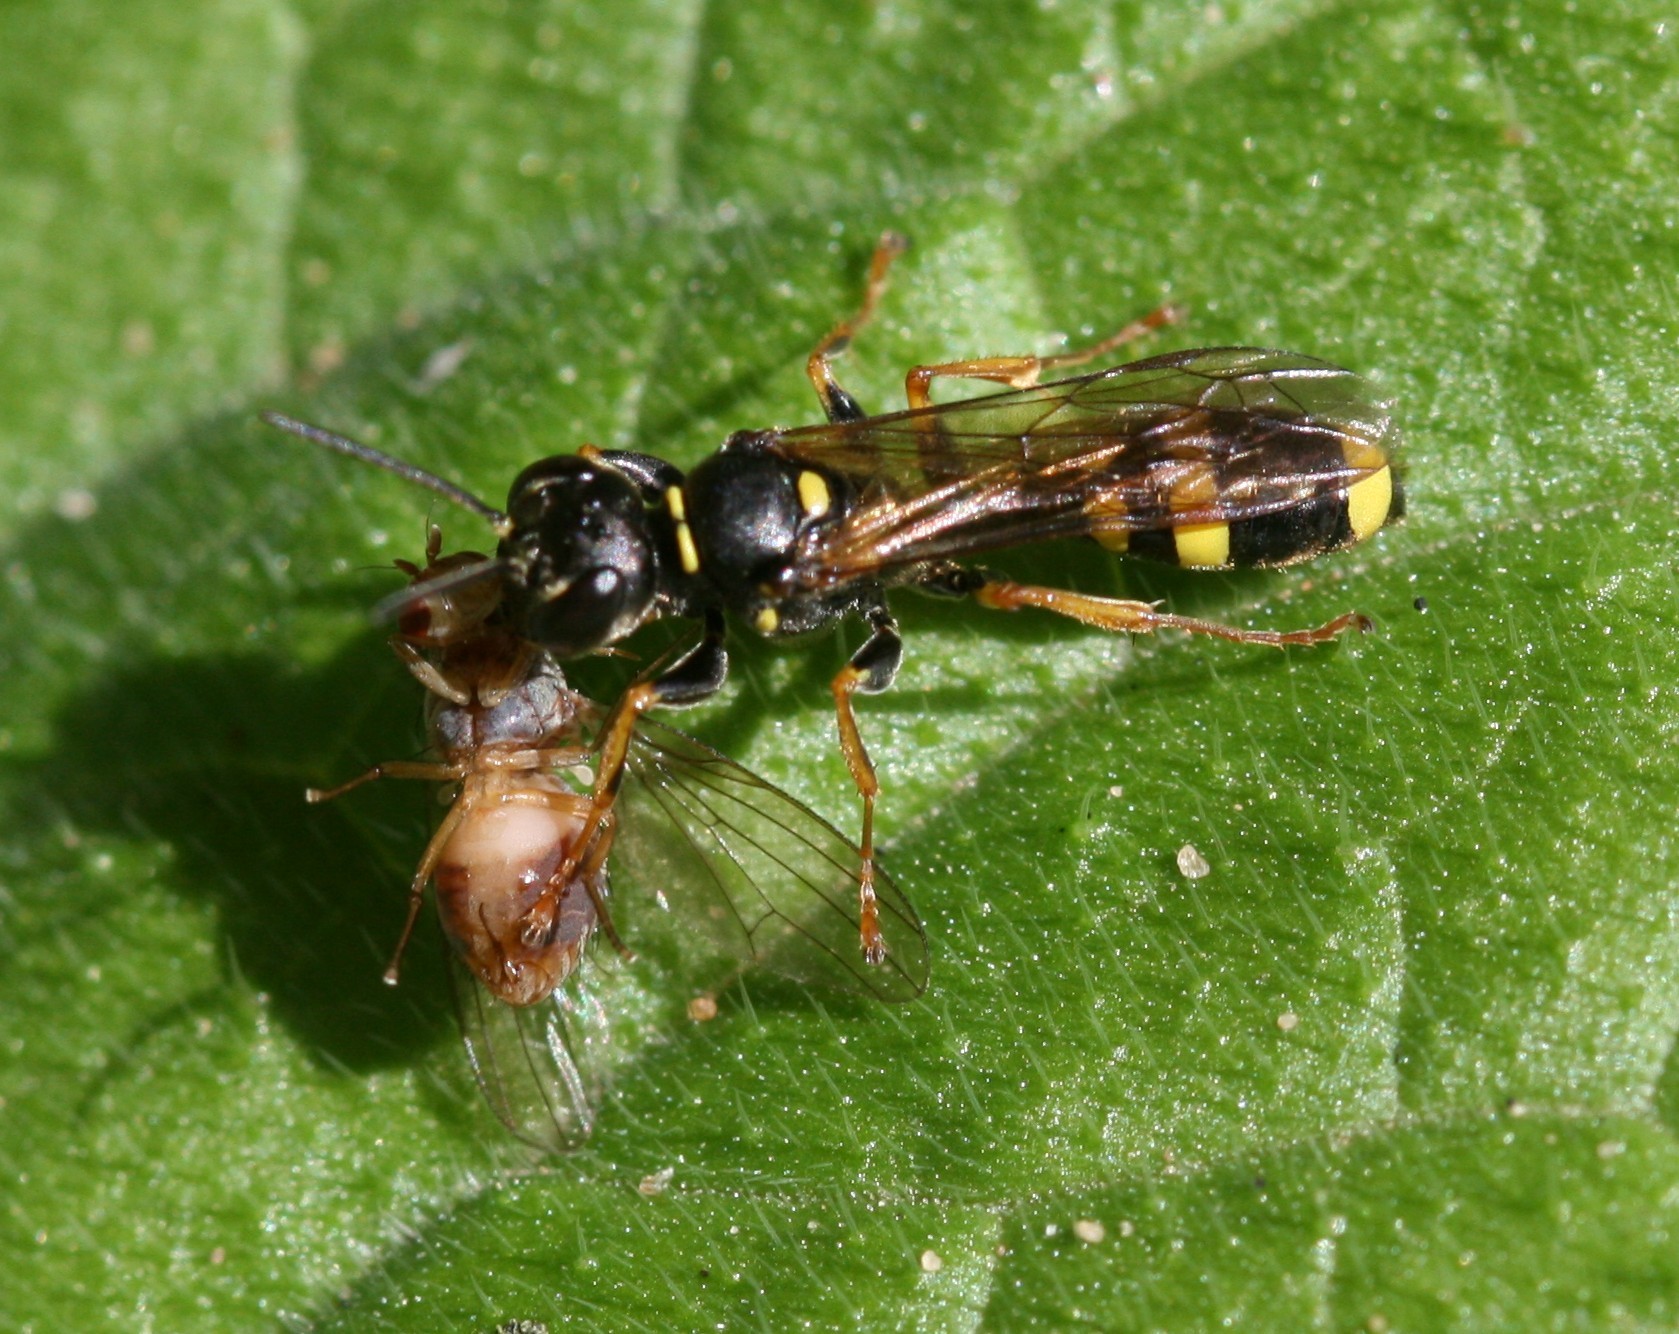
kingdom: Animalia
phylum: Arthropoda
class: Insecta
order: Hymenoptera
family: Crabronidae
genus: Mellinus
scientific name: Mellinus arvensis
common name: Field digger wasp
